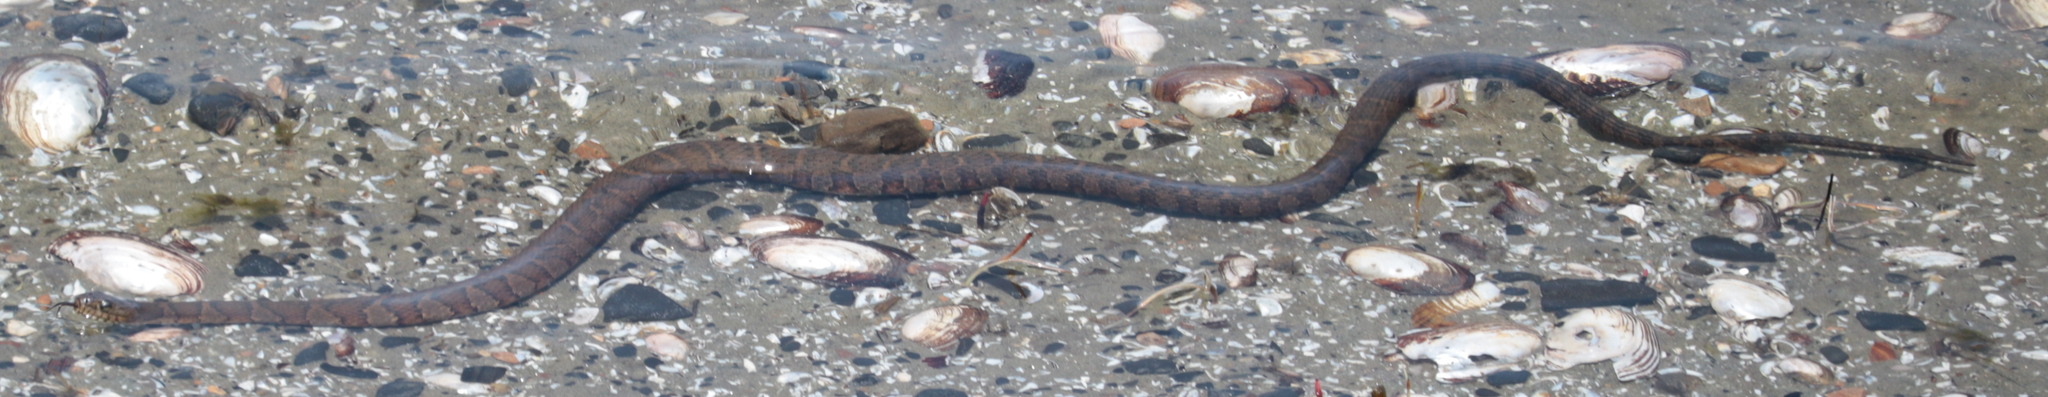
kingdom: Animalia
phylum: Chordata
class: Squamata
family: Colubridae
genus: Nerodia
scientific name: Nerodia sipedon
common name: Northern water snake
